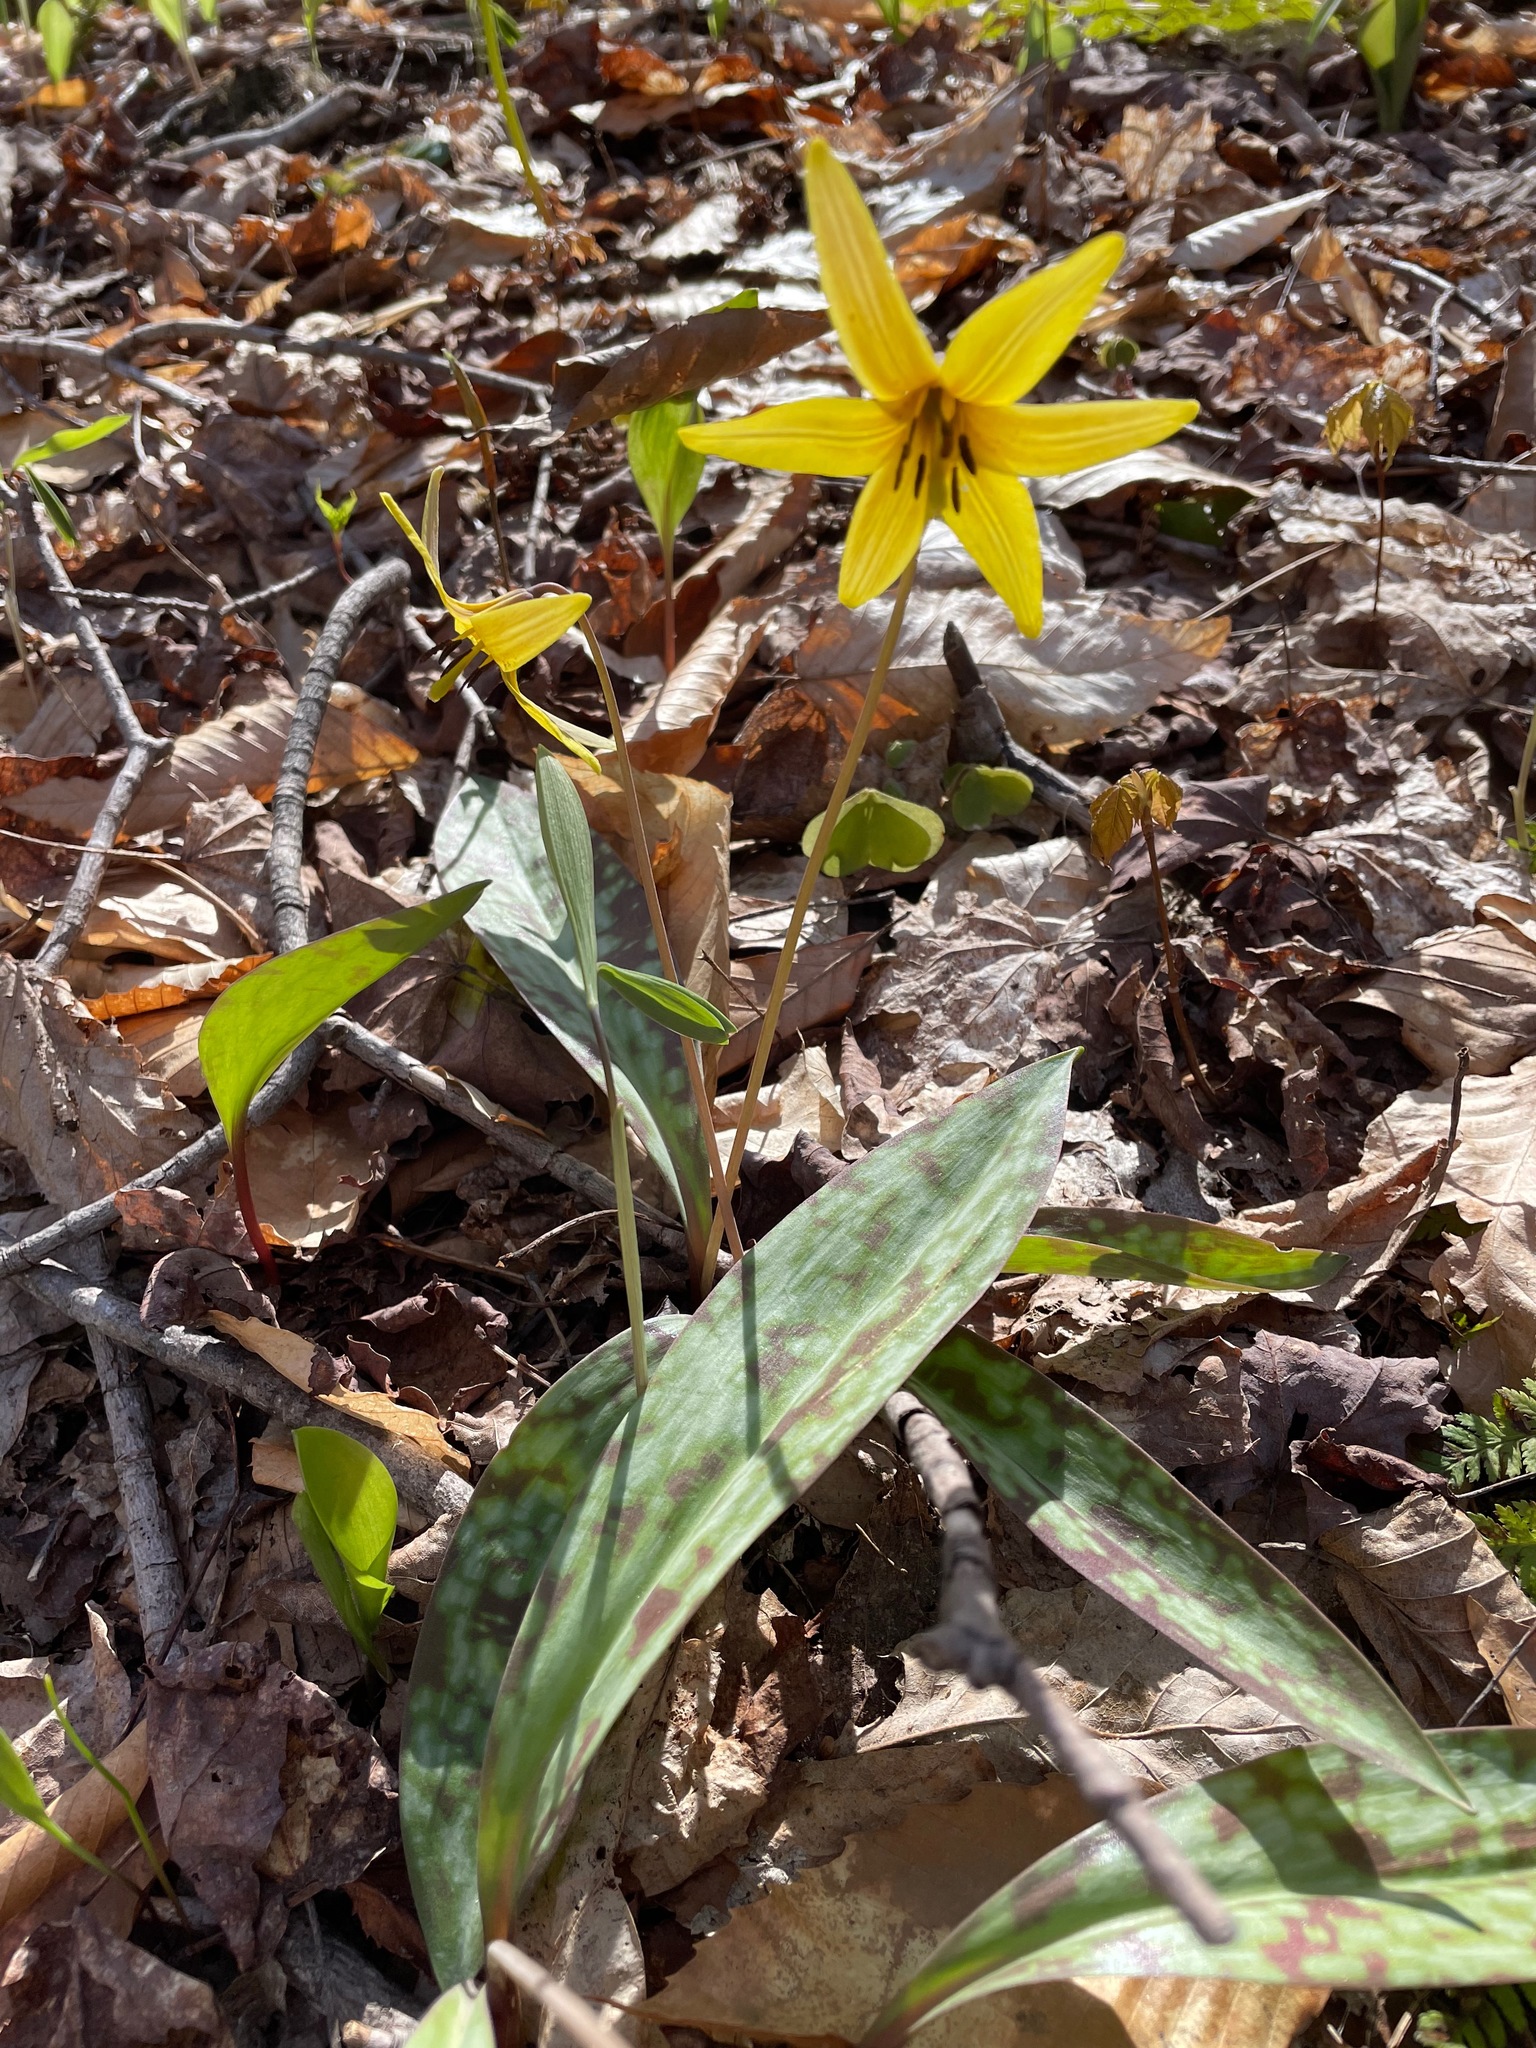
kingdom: Plantae
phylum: Tracheophyta
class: Liliopsida
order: Liliales
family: Liliaceae
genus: Erythronium
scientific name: Erythronium americanum
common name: Yellow adder's-tongue
